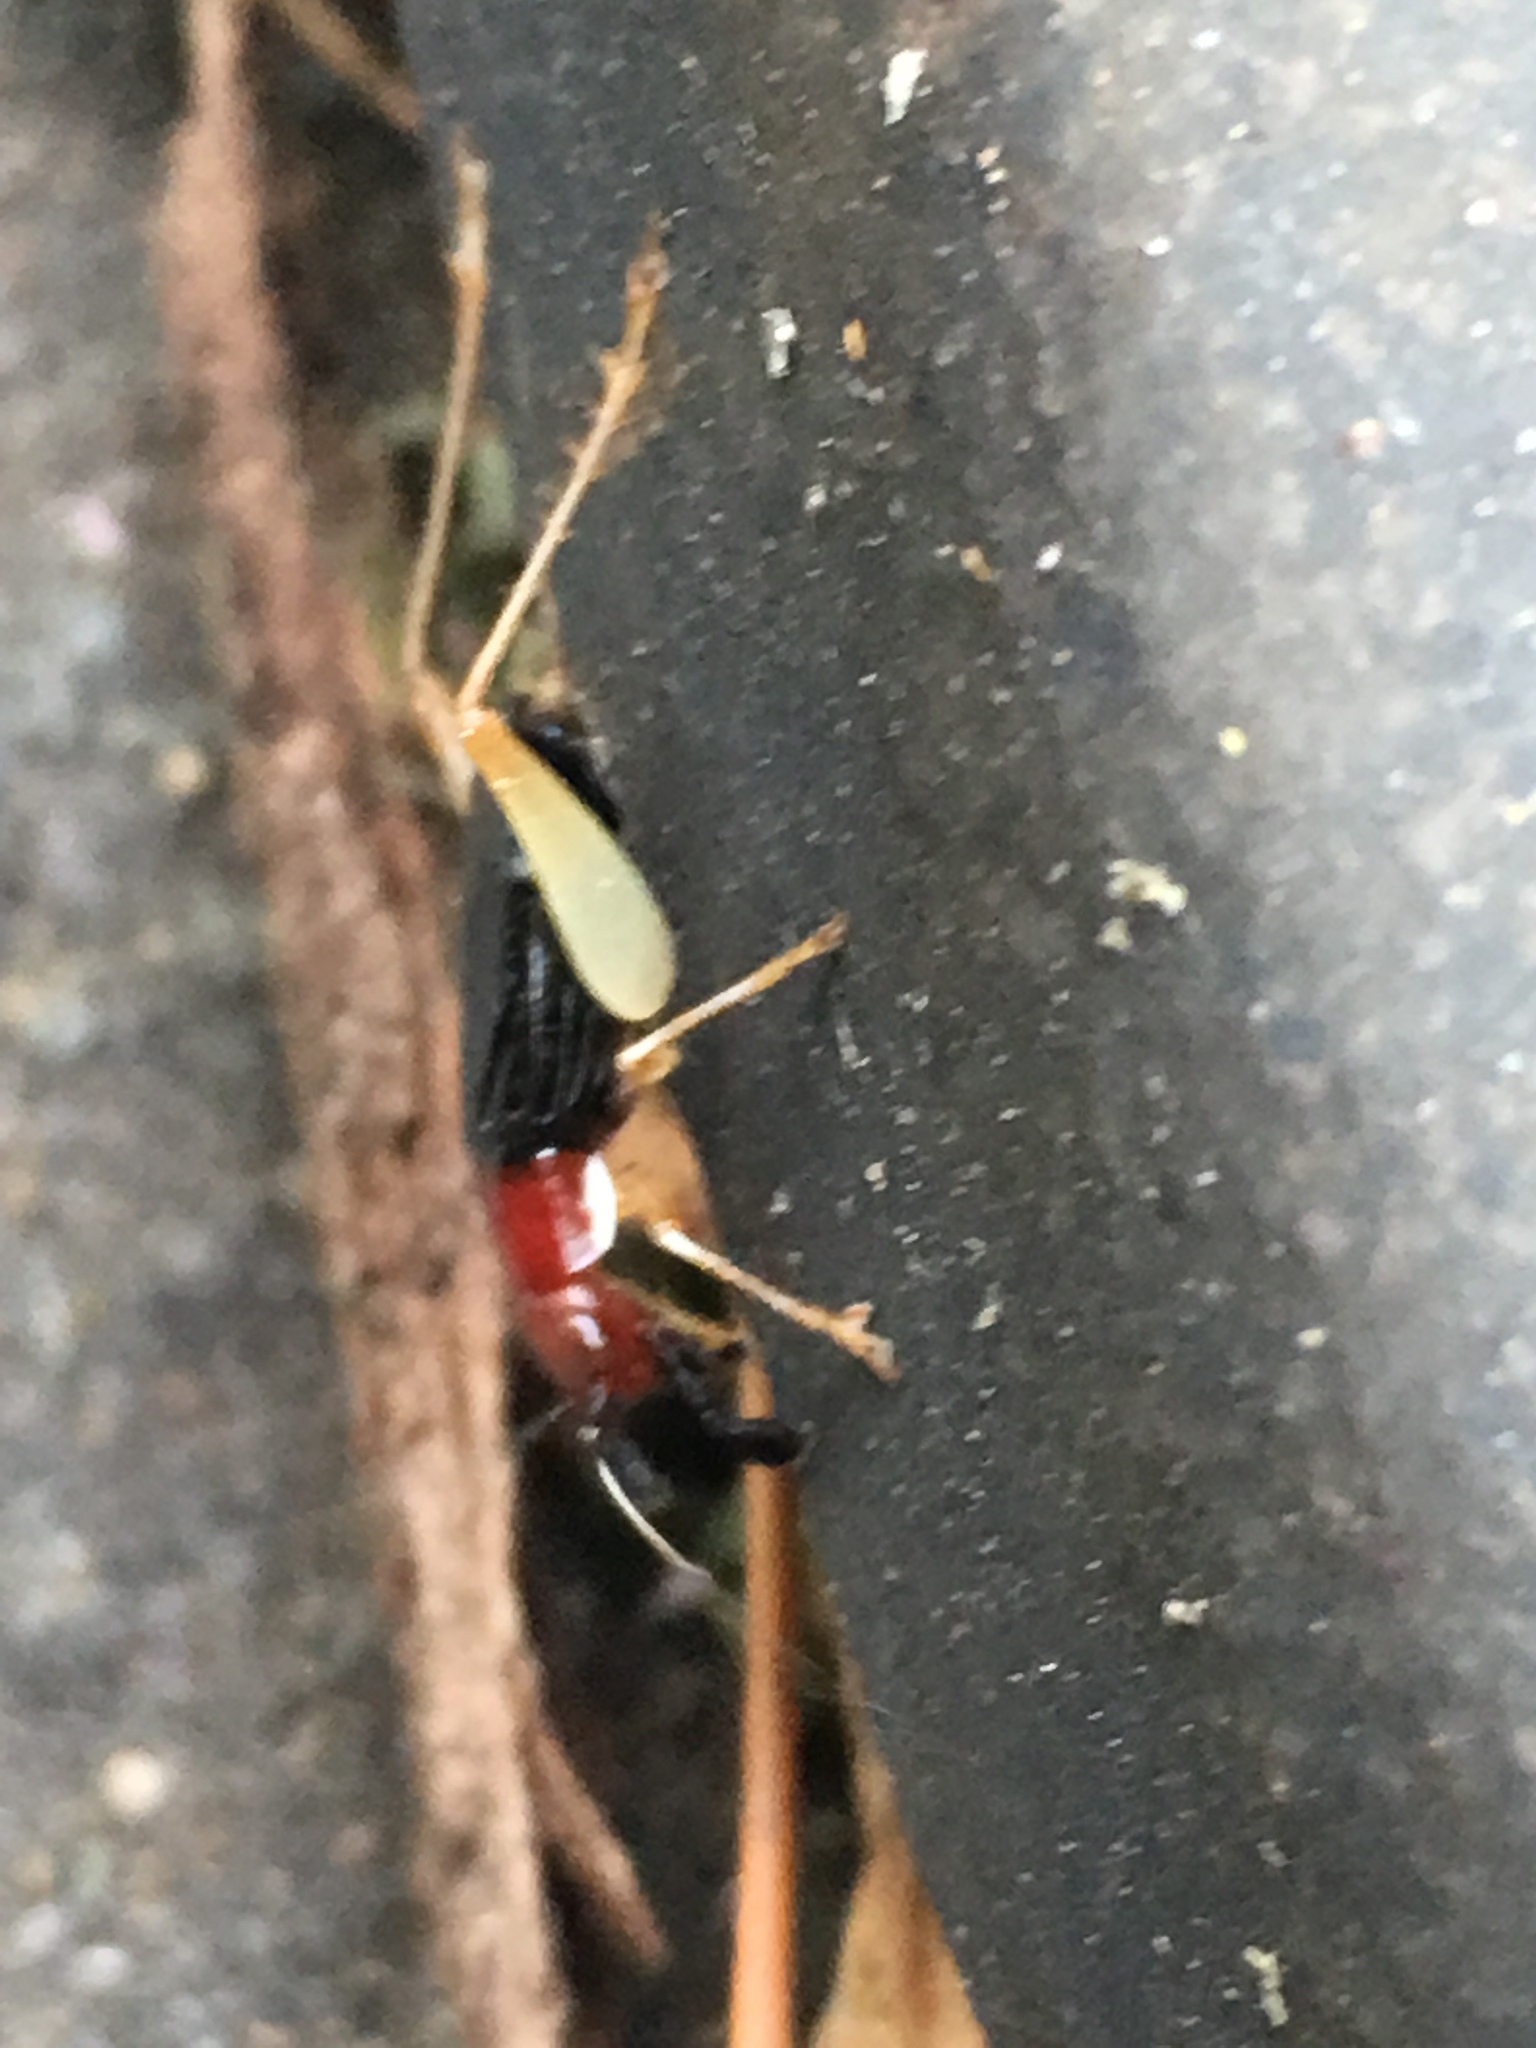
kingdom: Animalia
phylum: Arthropoda
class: Insecta
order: Orthoptera
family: Trigonidiidae
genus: Phyllopalpus
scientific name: Phyllopalpus pulchellus
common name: Handsome trig
